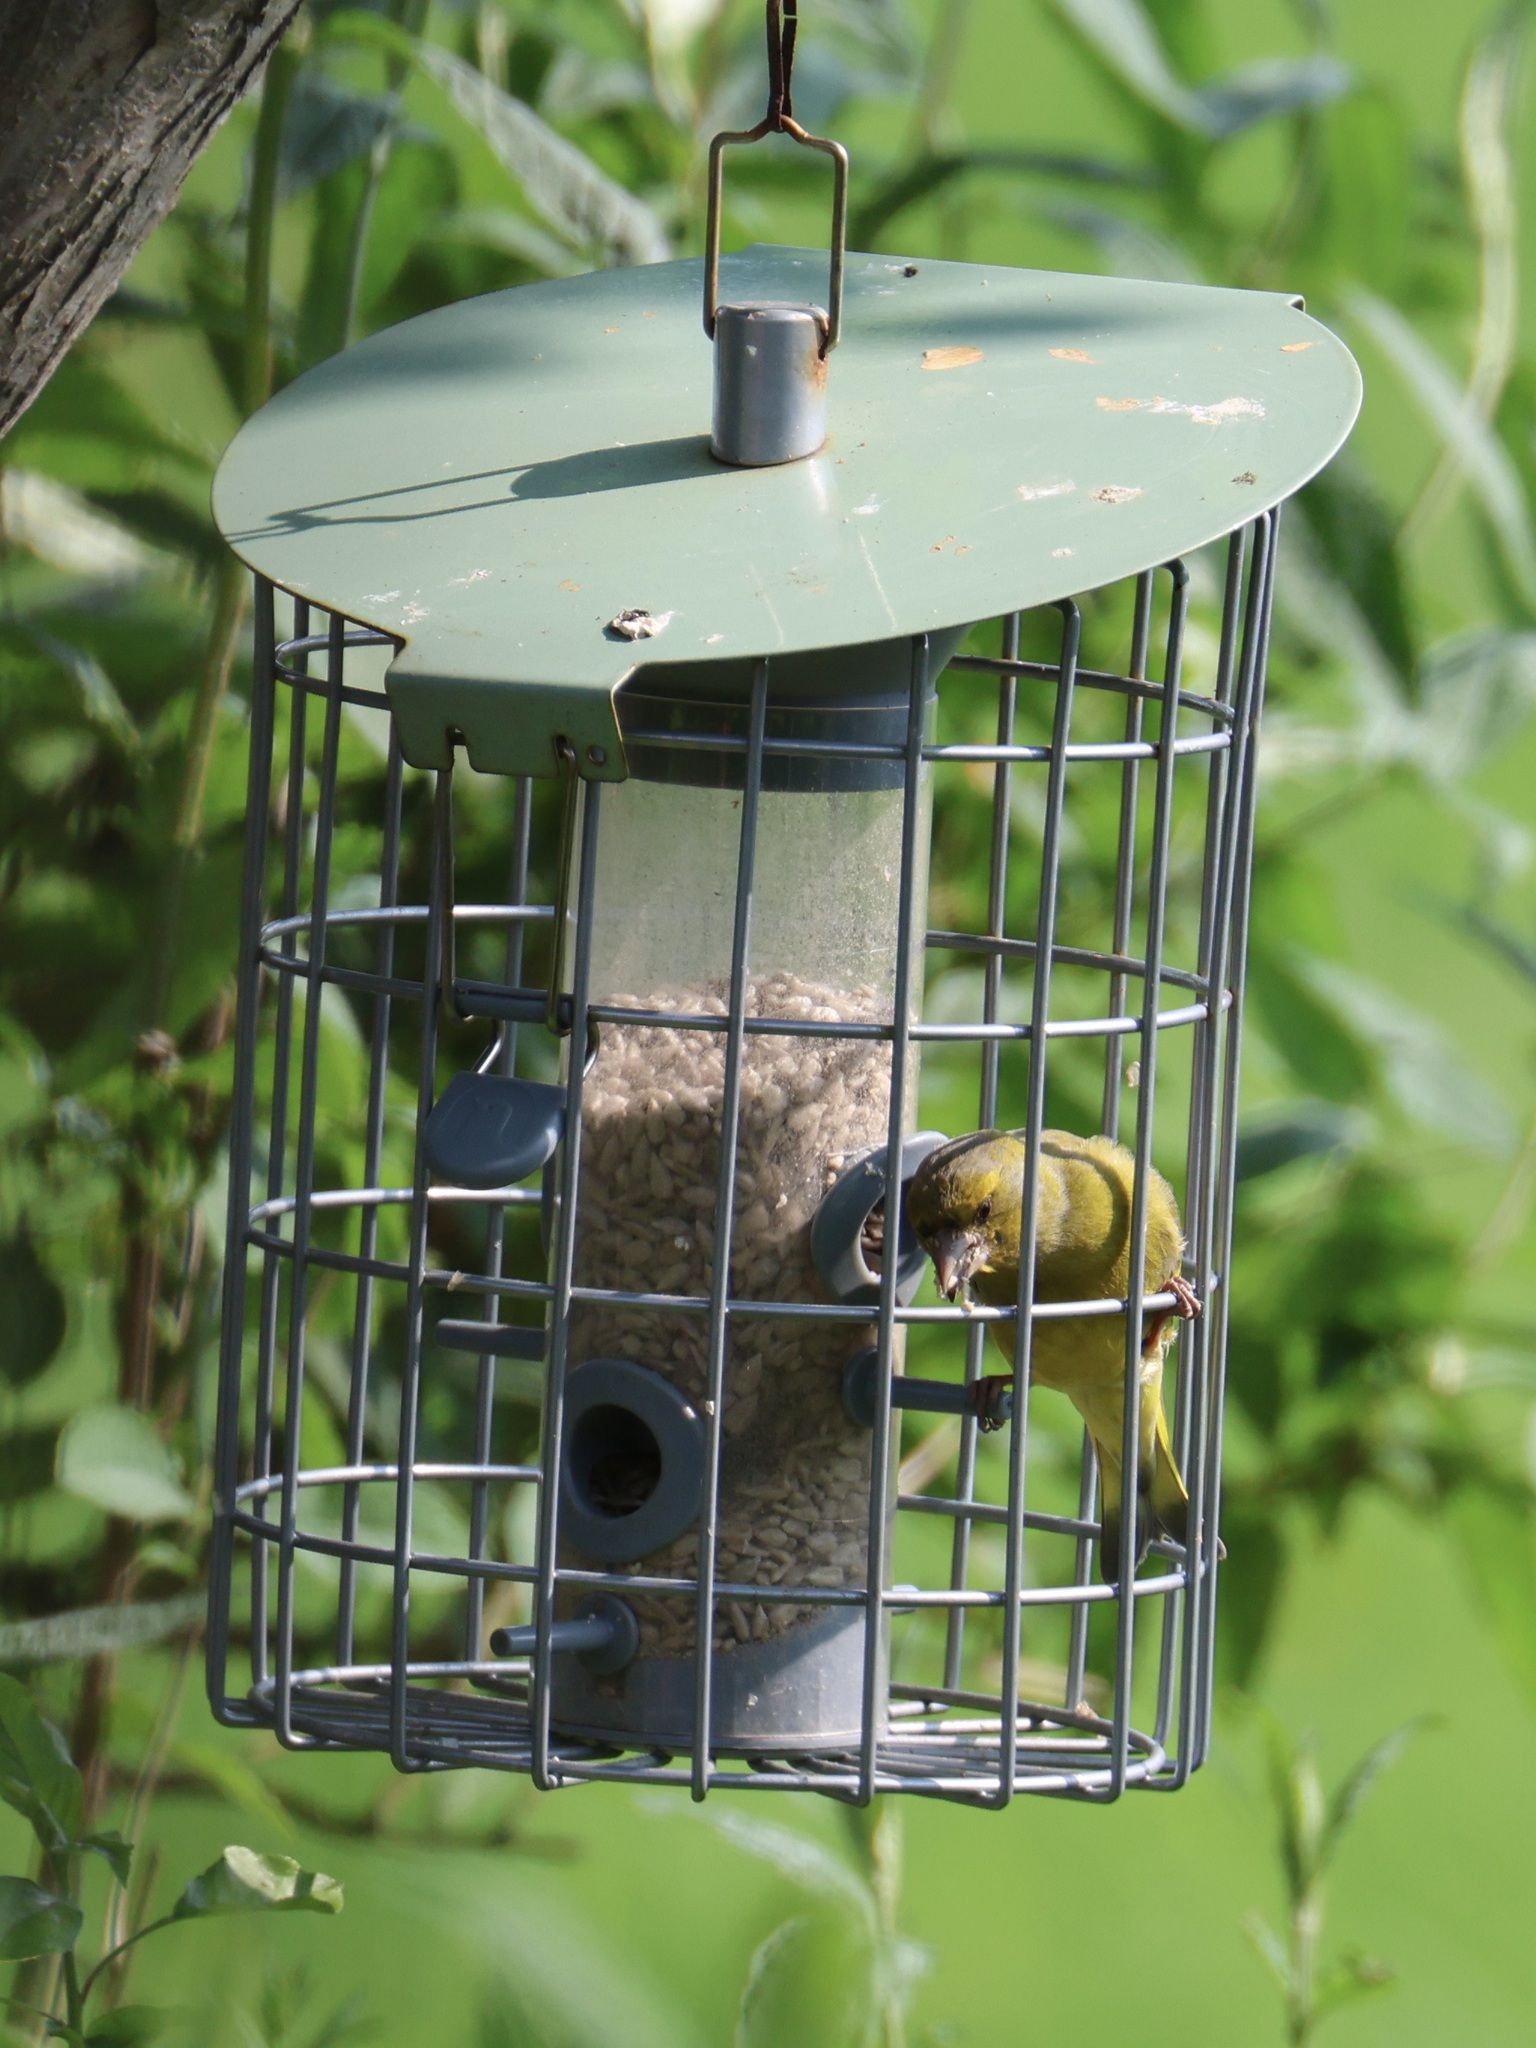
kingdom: Plantae
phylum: Tracheophyta
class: Liliopsida
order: Poales
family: Poaceae
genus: Chloris
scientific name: Chloris chloris
